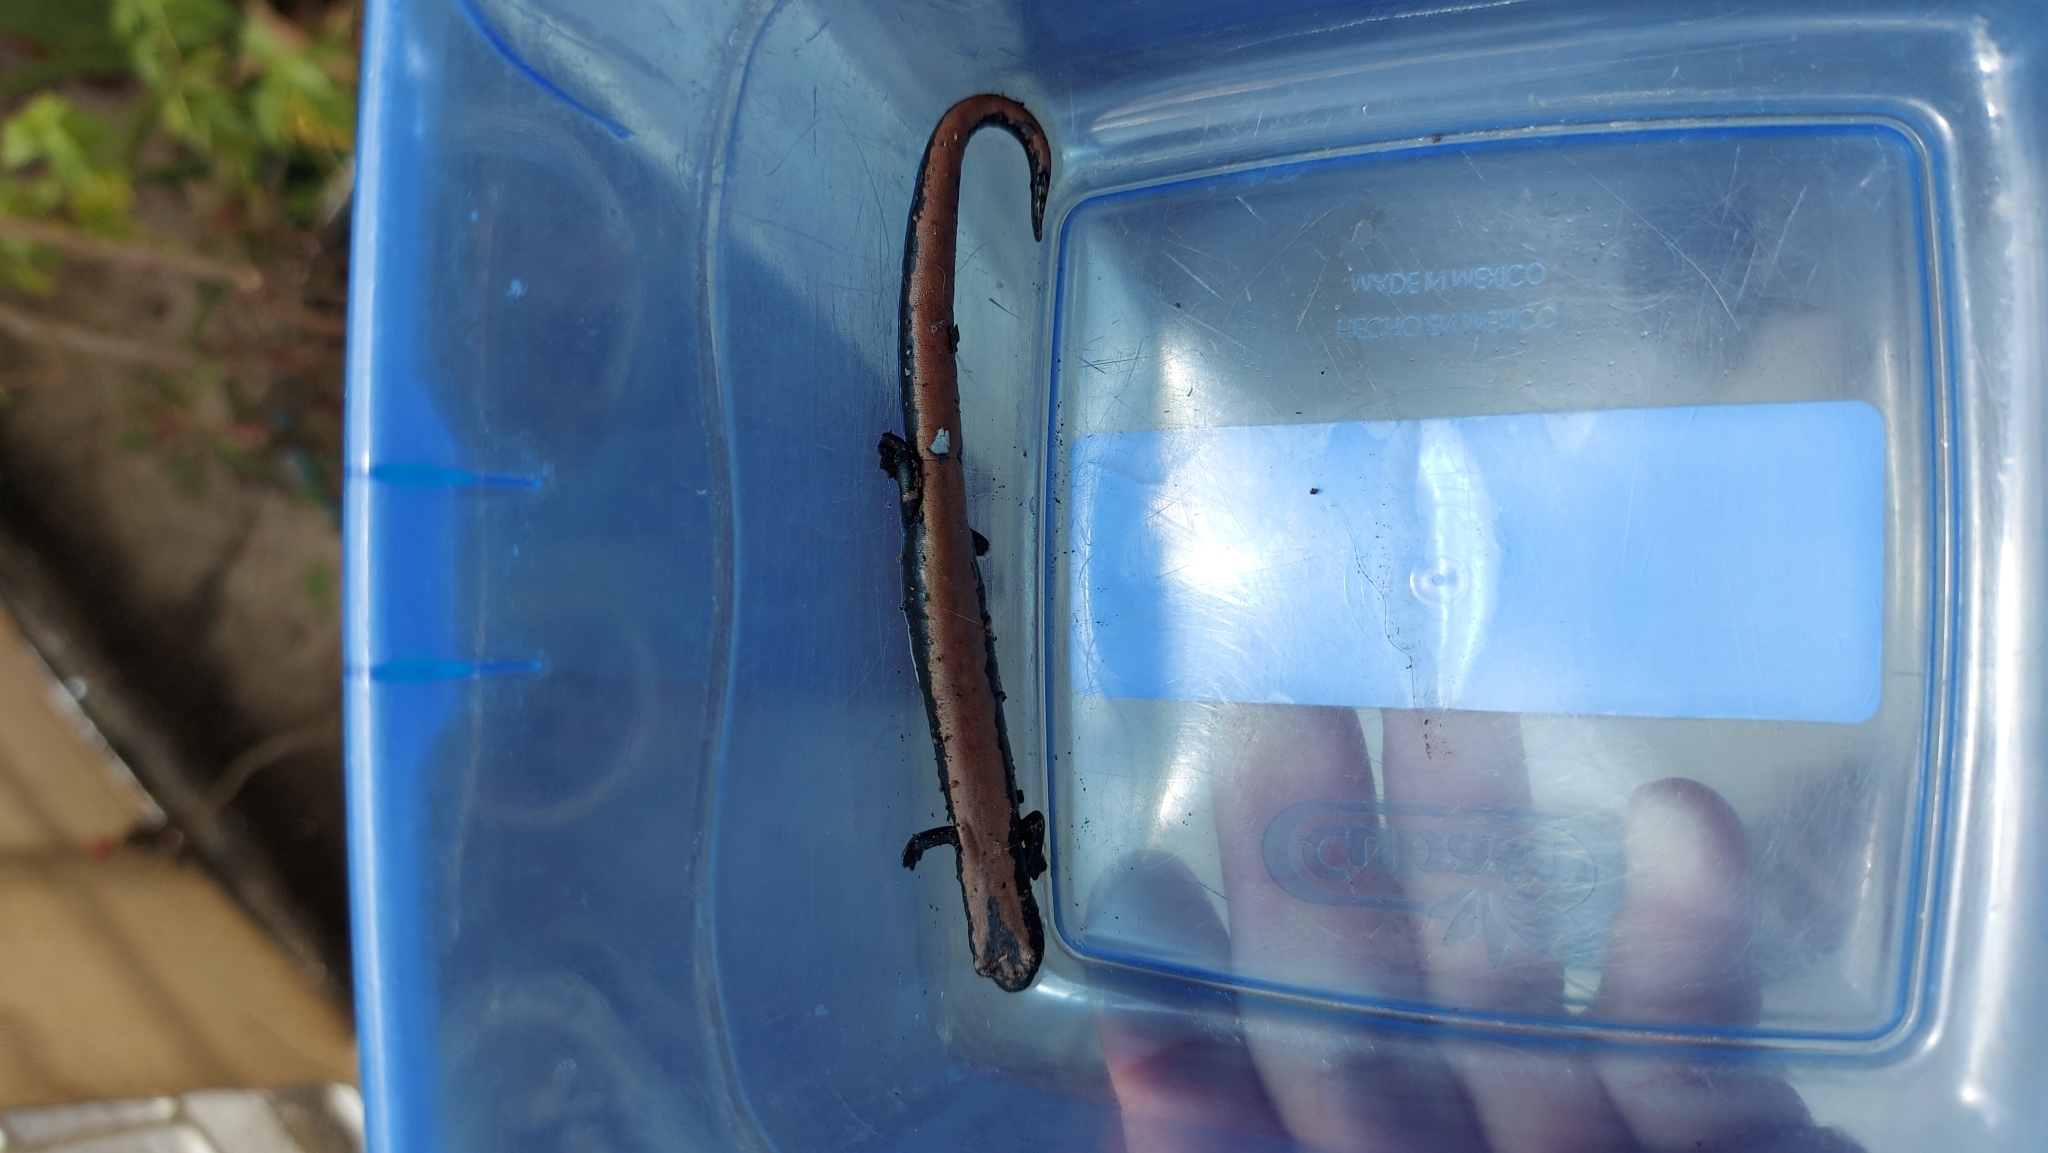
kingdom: Animalia
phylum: Chordata
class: Amphibia
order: Caudata
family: Plethodontidae
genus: Bolitoglossa
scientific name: Bolitoglossa platydactyla
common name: Broad-footed salamander
